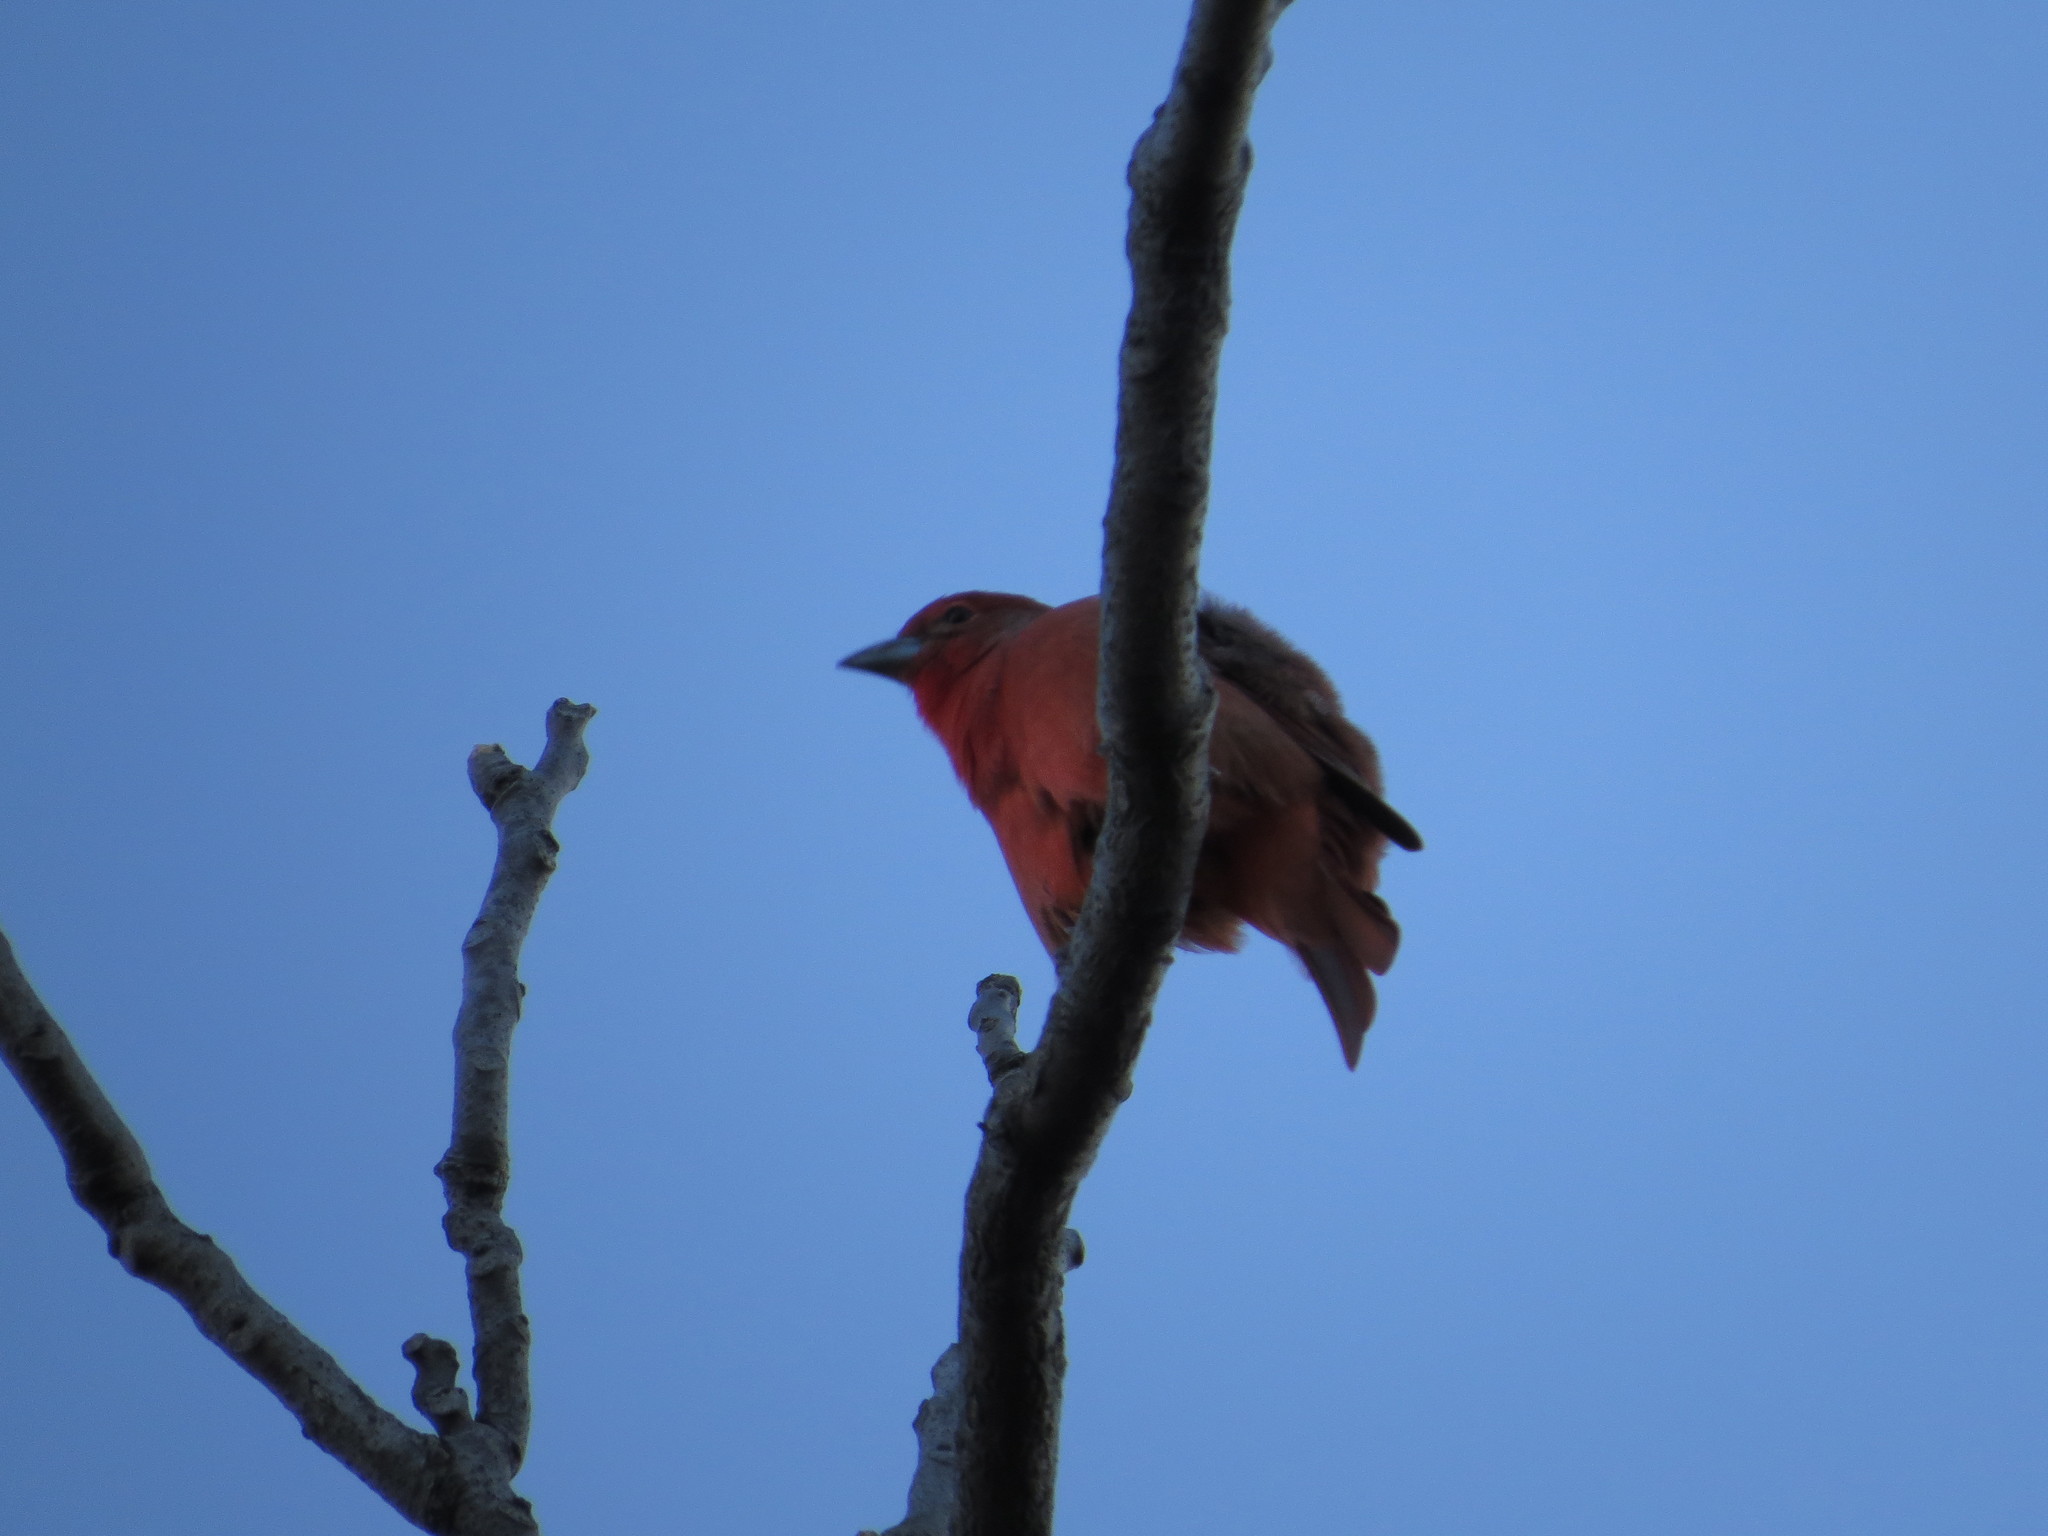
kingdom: Animalia
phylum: Chordata
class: Aves
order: Passeriformes
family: Cardinalidae
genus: Piranga
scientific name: Piranga flava
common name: Red tanager
